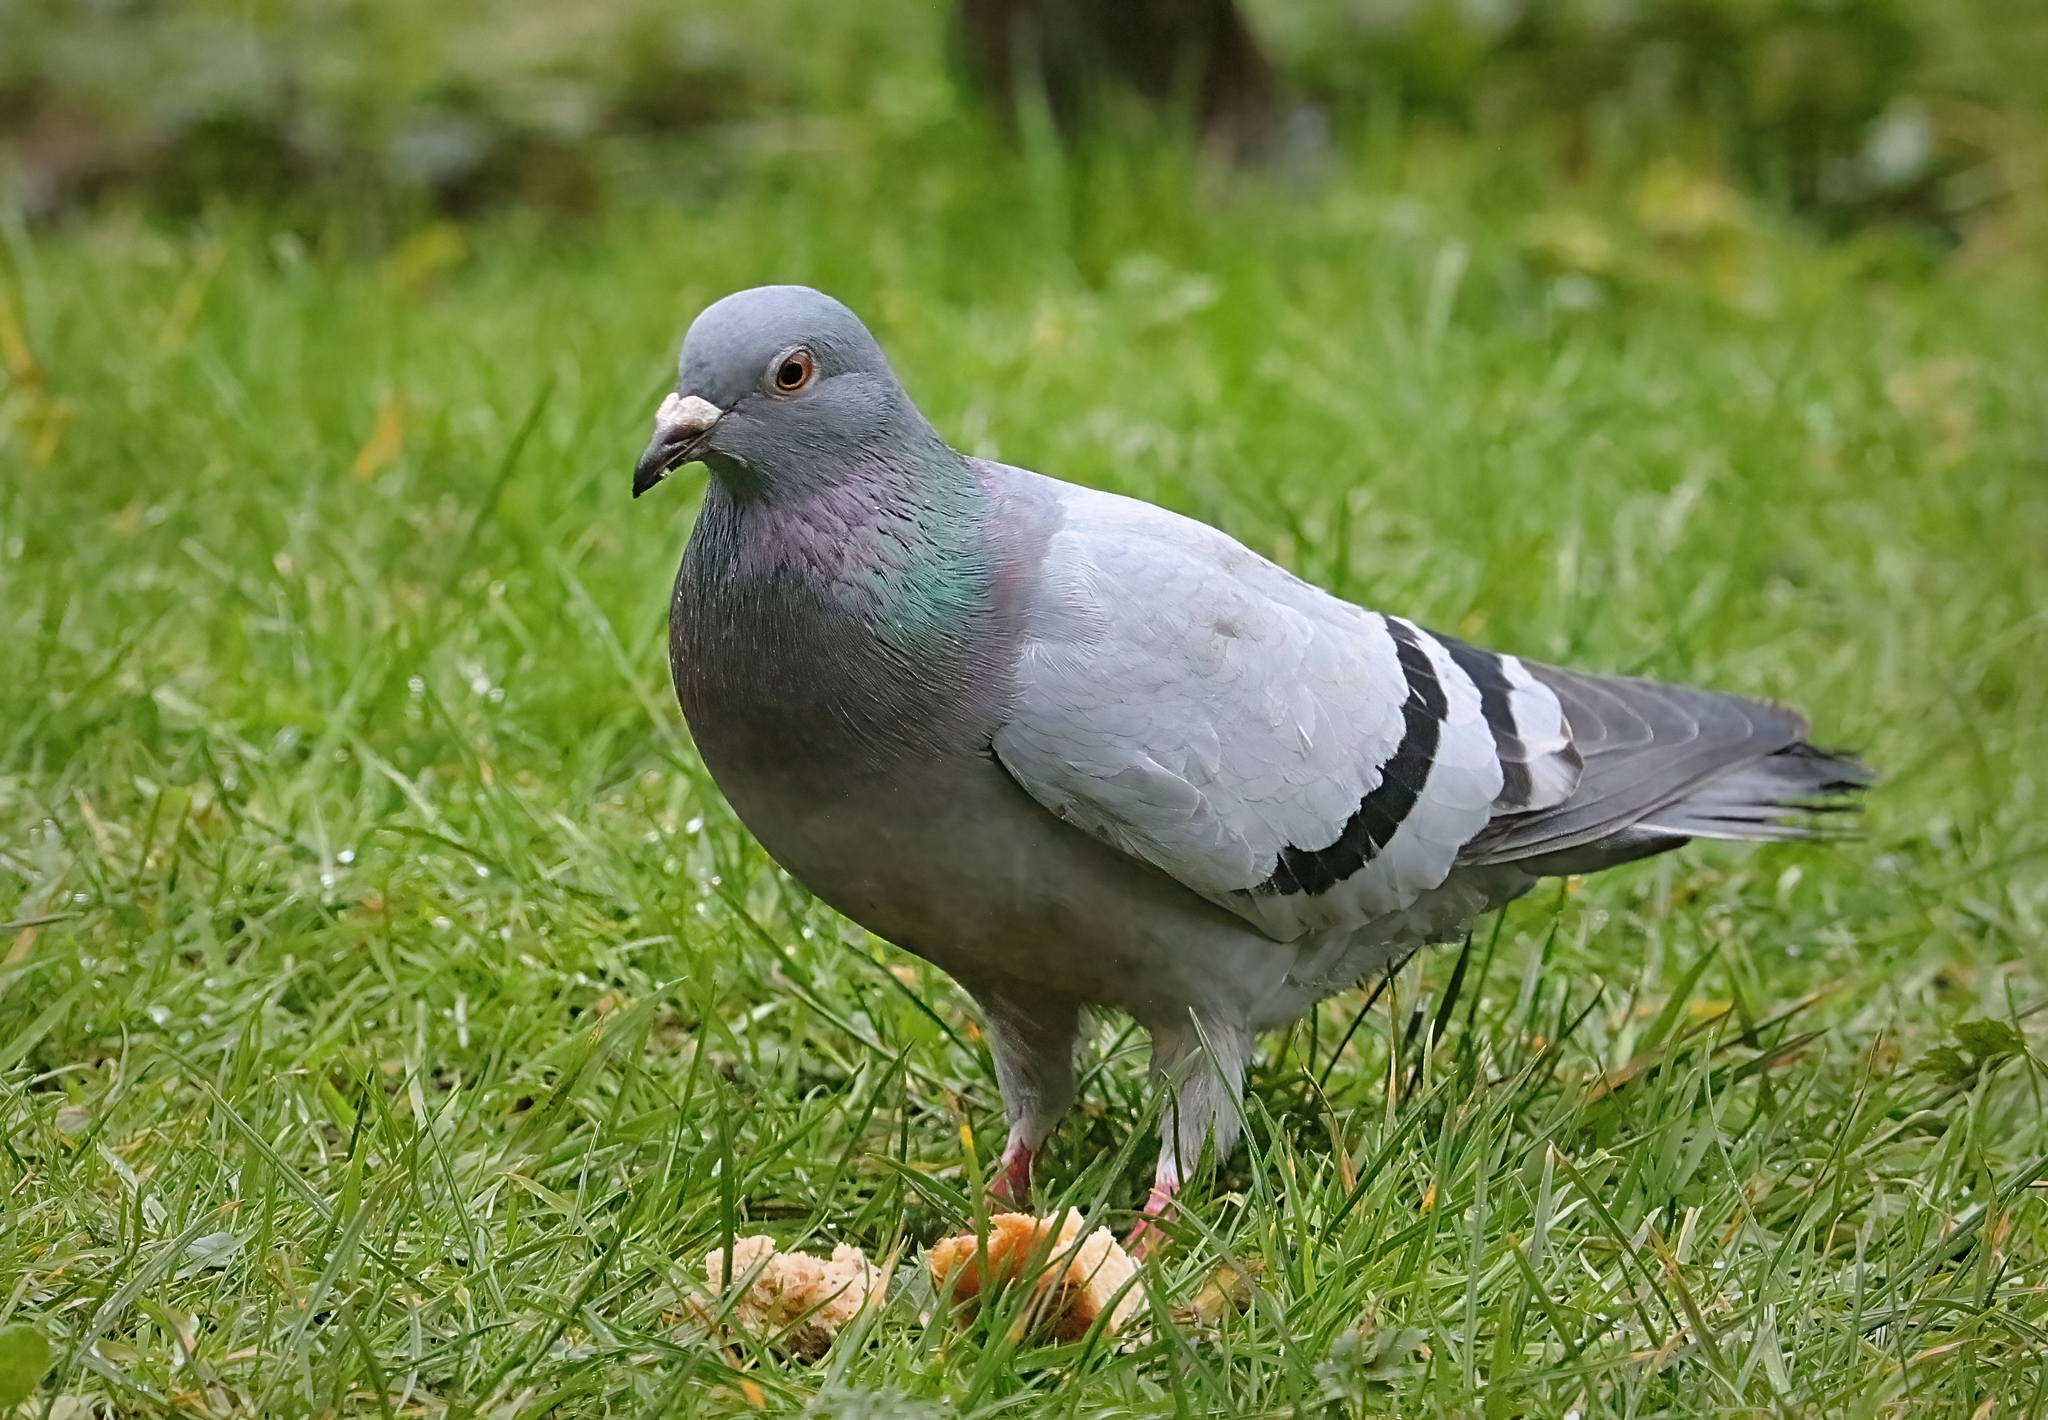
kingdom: Animalia
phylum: Chordata
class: Aves
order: Columbiformes
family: Columbidae
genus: Columba
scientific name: Columba livia
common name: Rock pigeon
